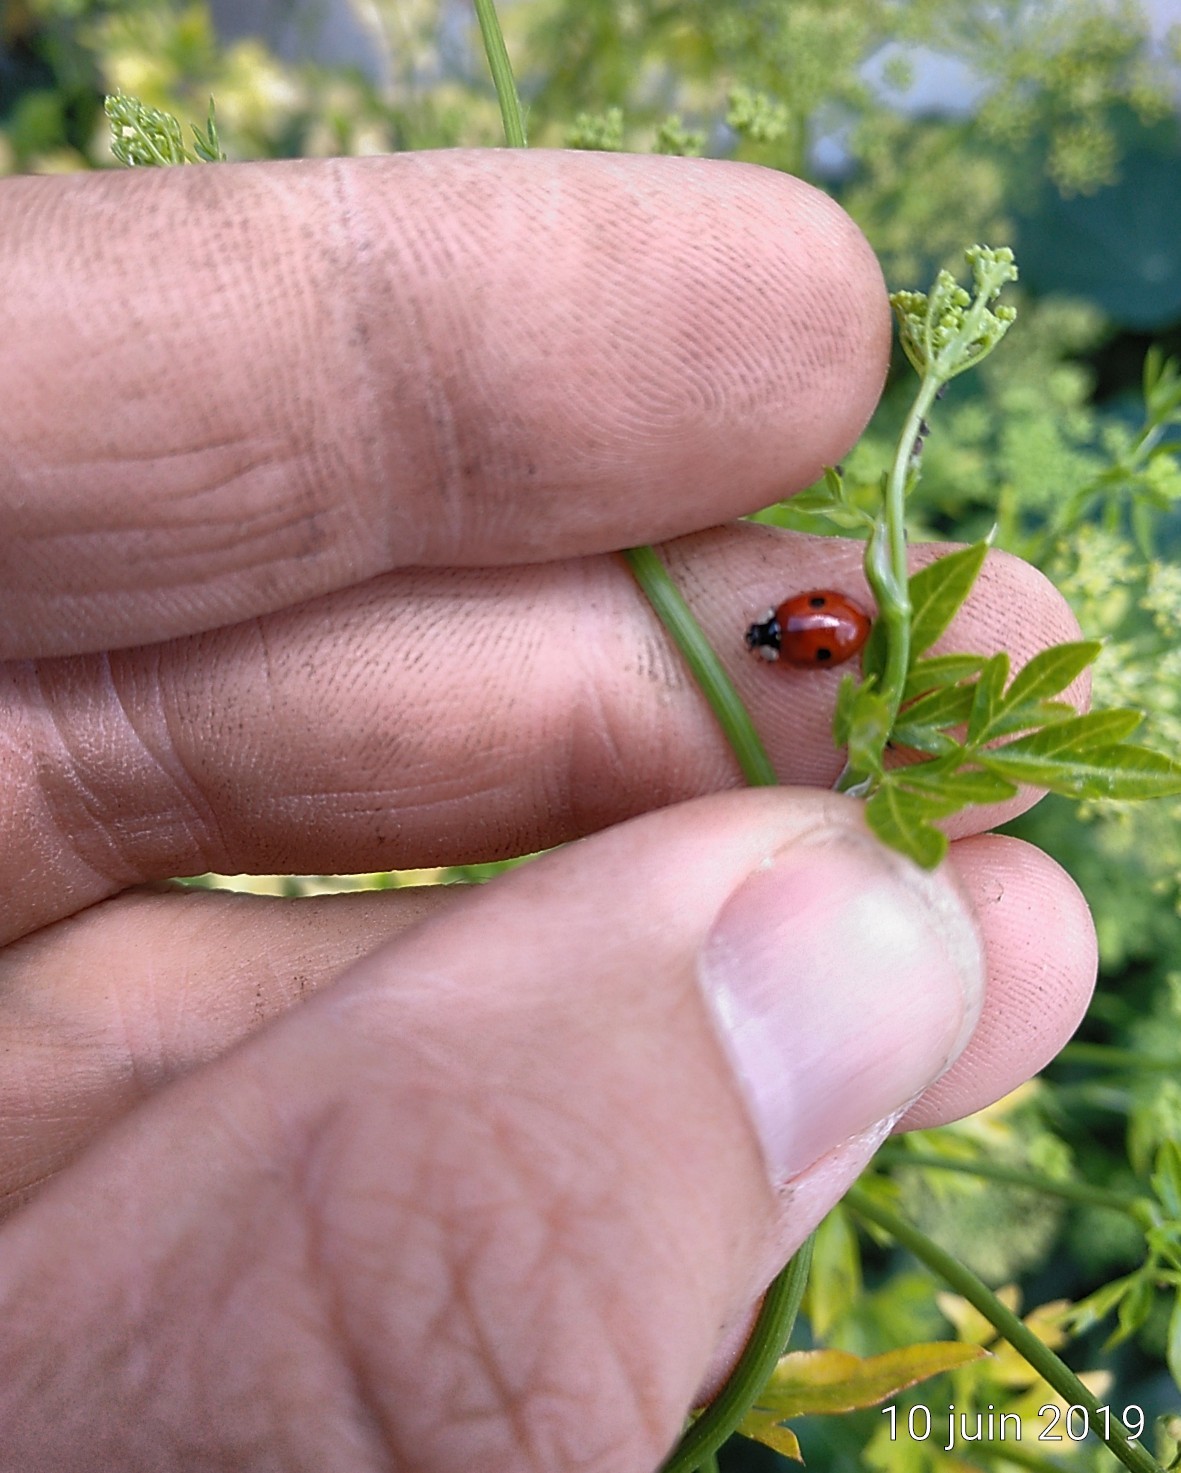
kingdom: Animalia
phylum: Arthropoda
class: Insecta
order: Coleoptera
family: Coccinellidae
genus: Adalia
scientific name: Adalia bipunctata
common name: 2-spot ladybird
